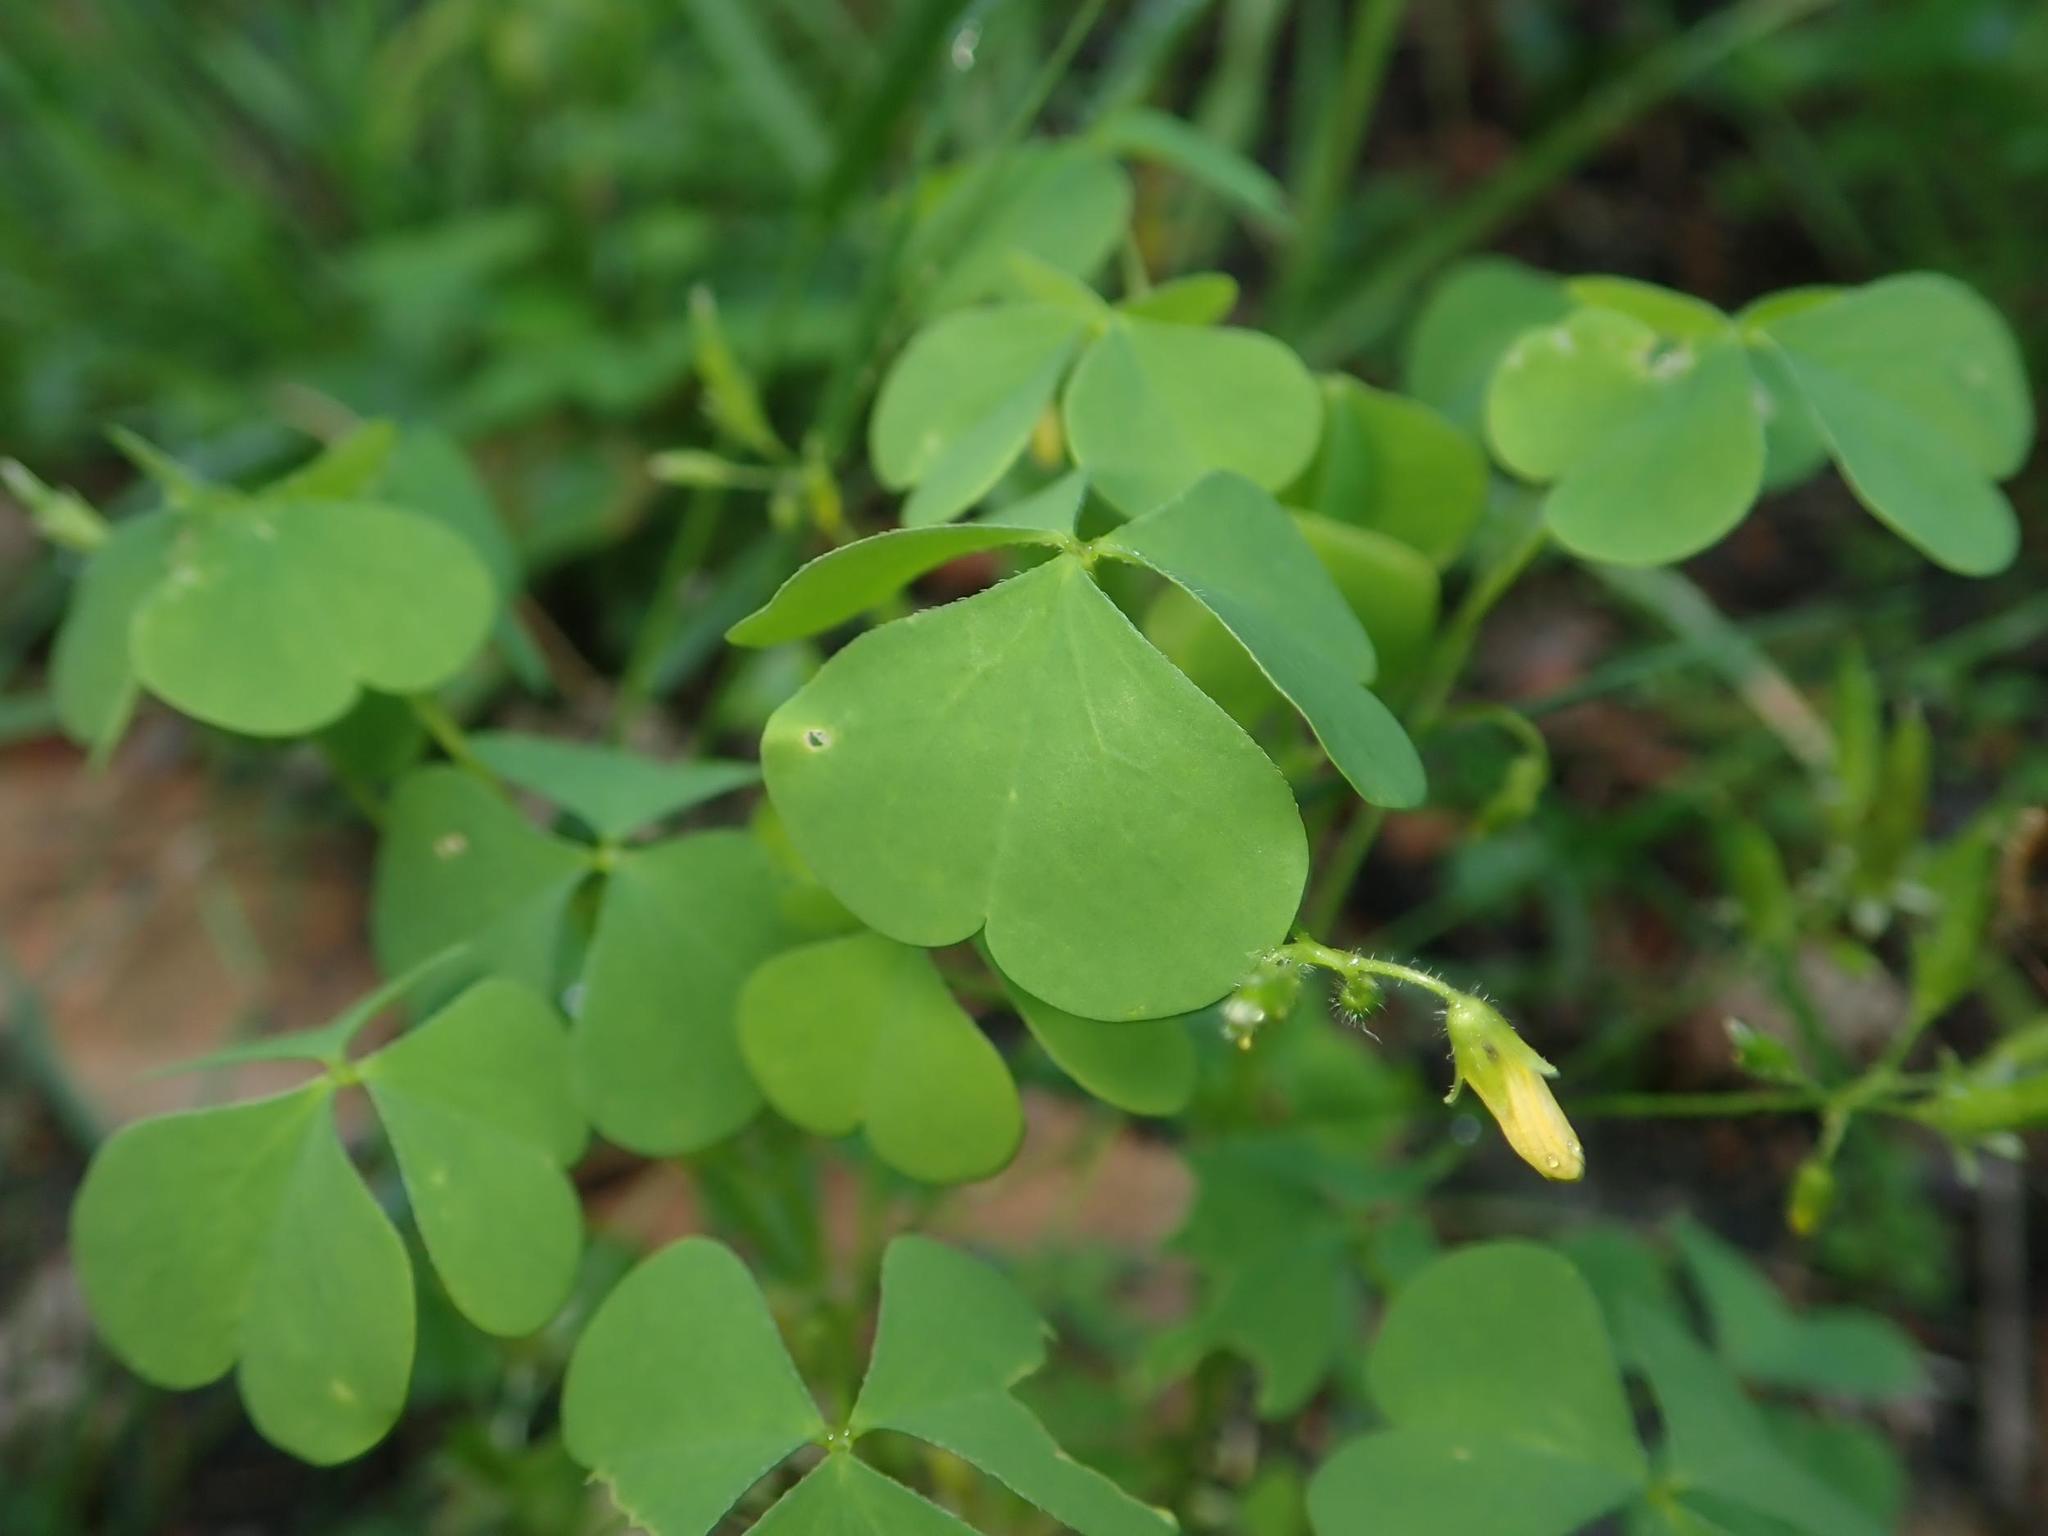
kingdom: Plantae
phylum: Tracheophyta
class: Magnoliopsida
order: Oxalidales
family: Oxalidaceae
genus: Oxalis
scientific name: Oxalis stricta
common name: Upright yellow-sorrel
